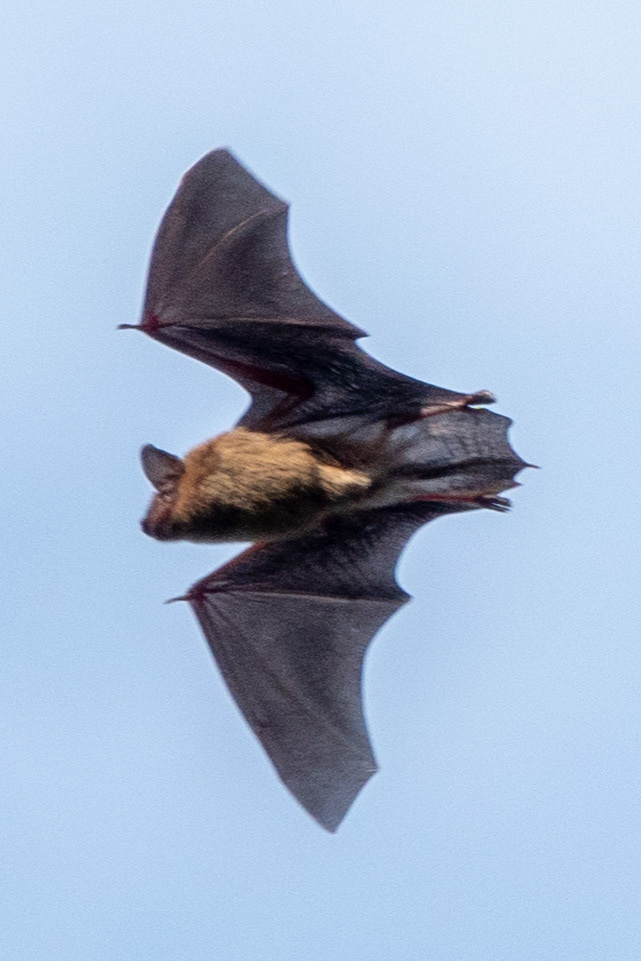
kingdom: Animalia
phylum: Chordata
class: Mammalia
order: Chiroptera
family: Vespertilionidae
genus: Eptesicus
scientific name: Eptesicus fuscus
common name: Big brown bat
